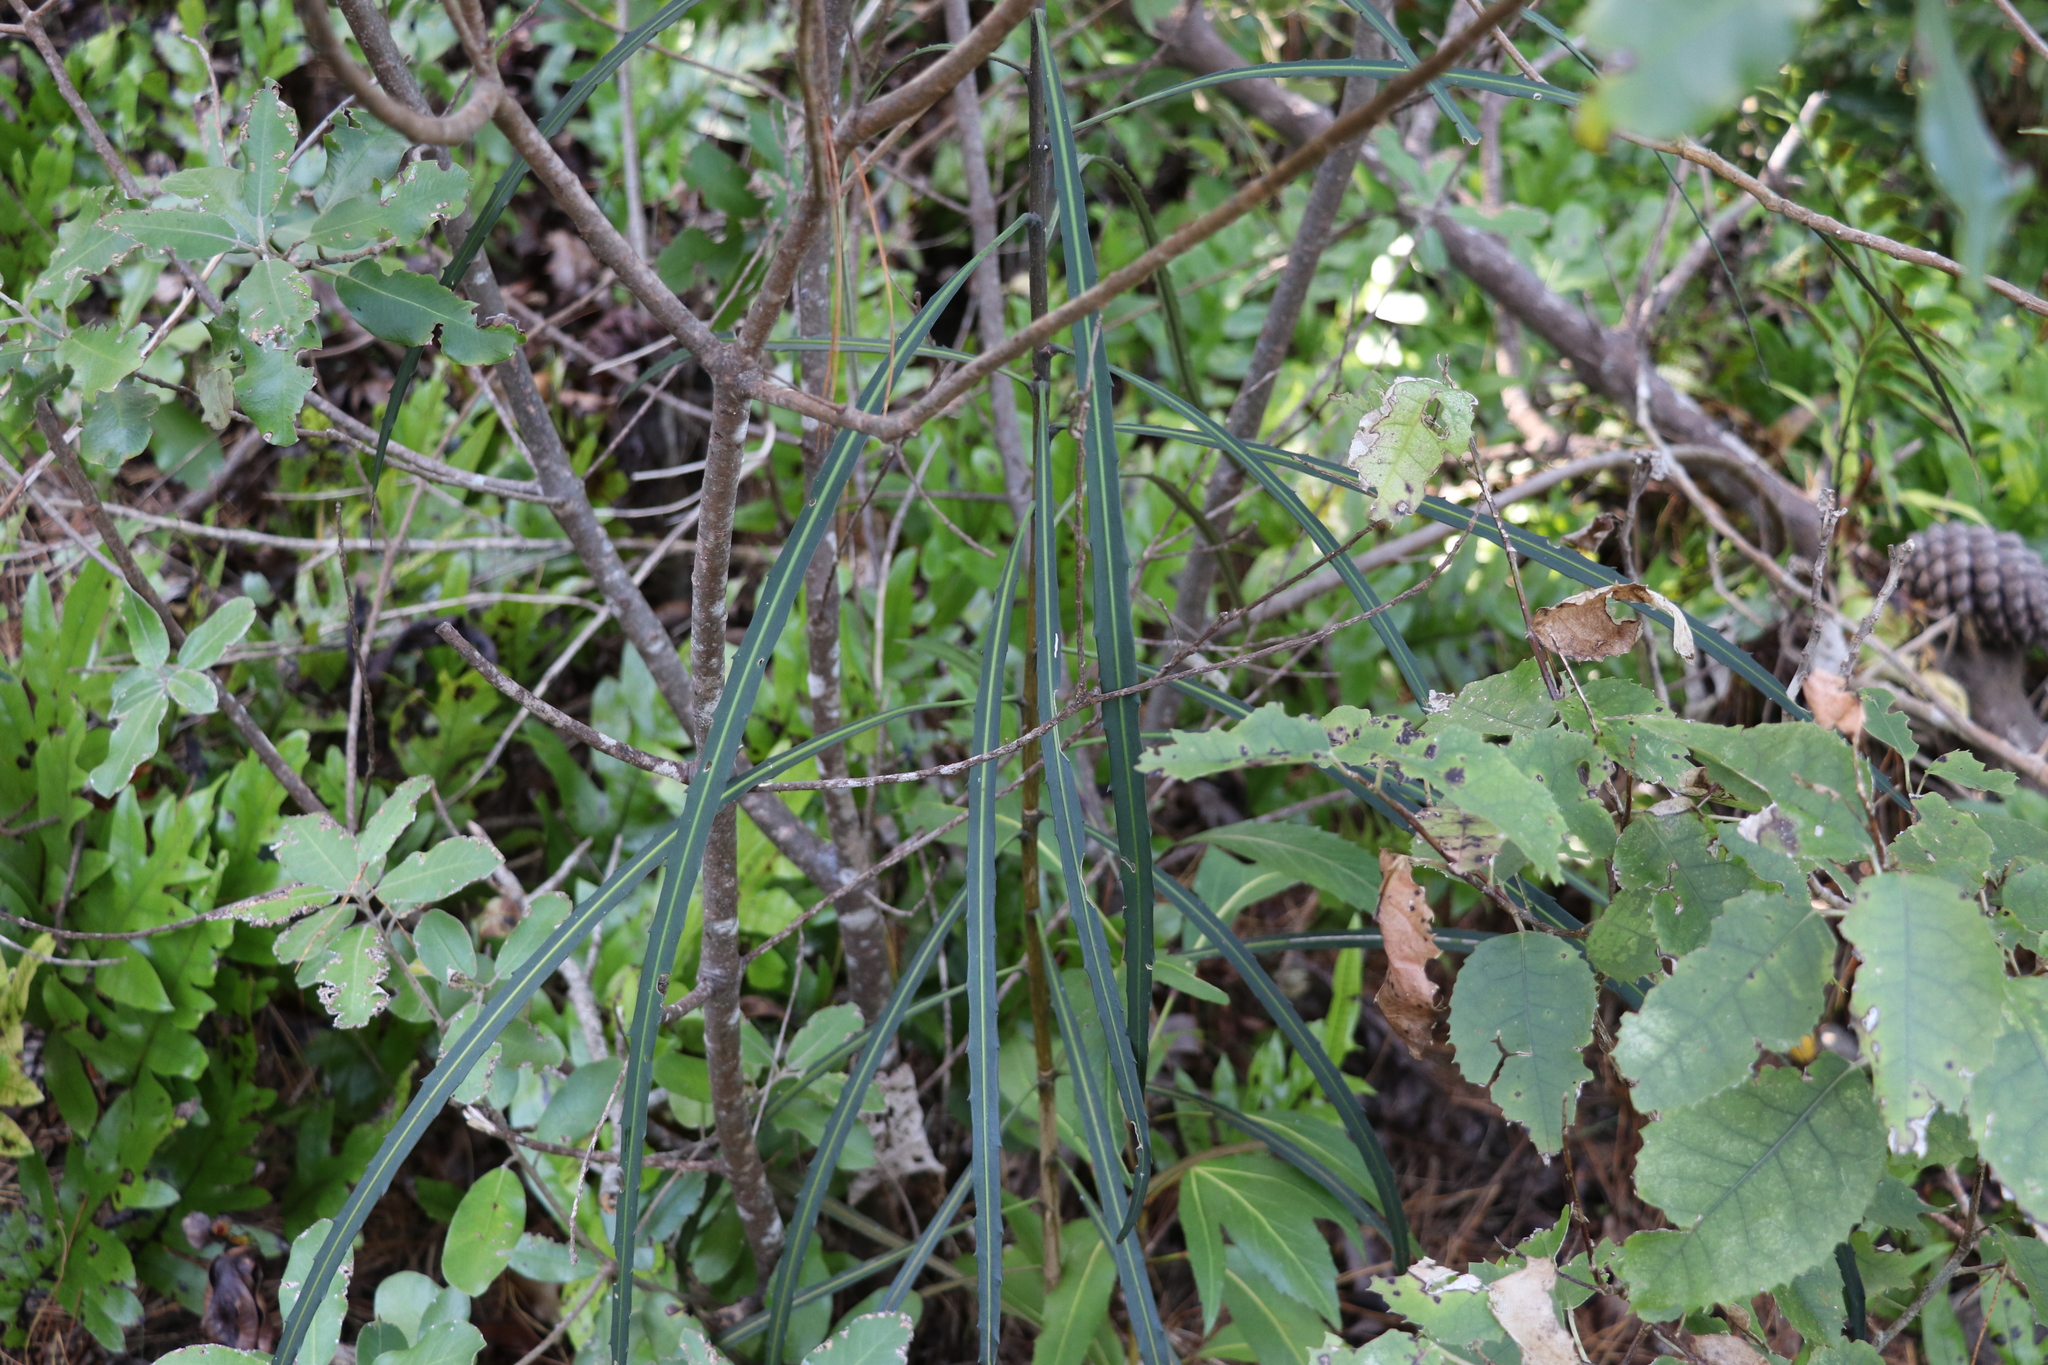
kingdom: Plantae
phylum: Tracheophyta
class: Magnoliopsida
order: Apiales
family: Araliaceae
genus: Pseudopanax
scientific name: Pseudopanax crassifolius
